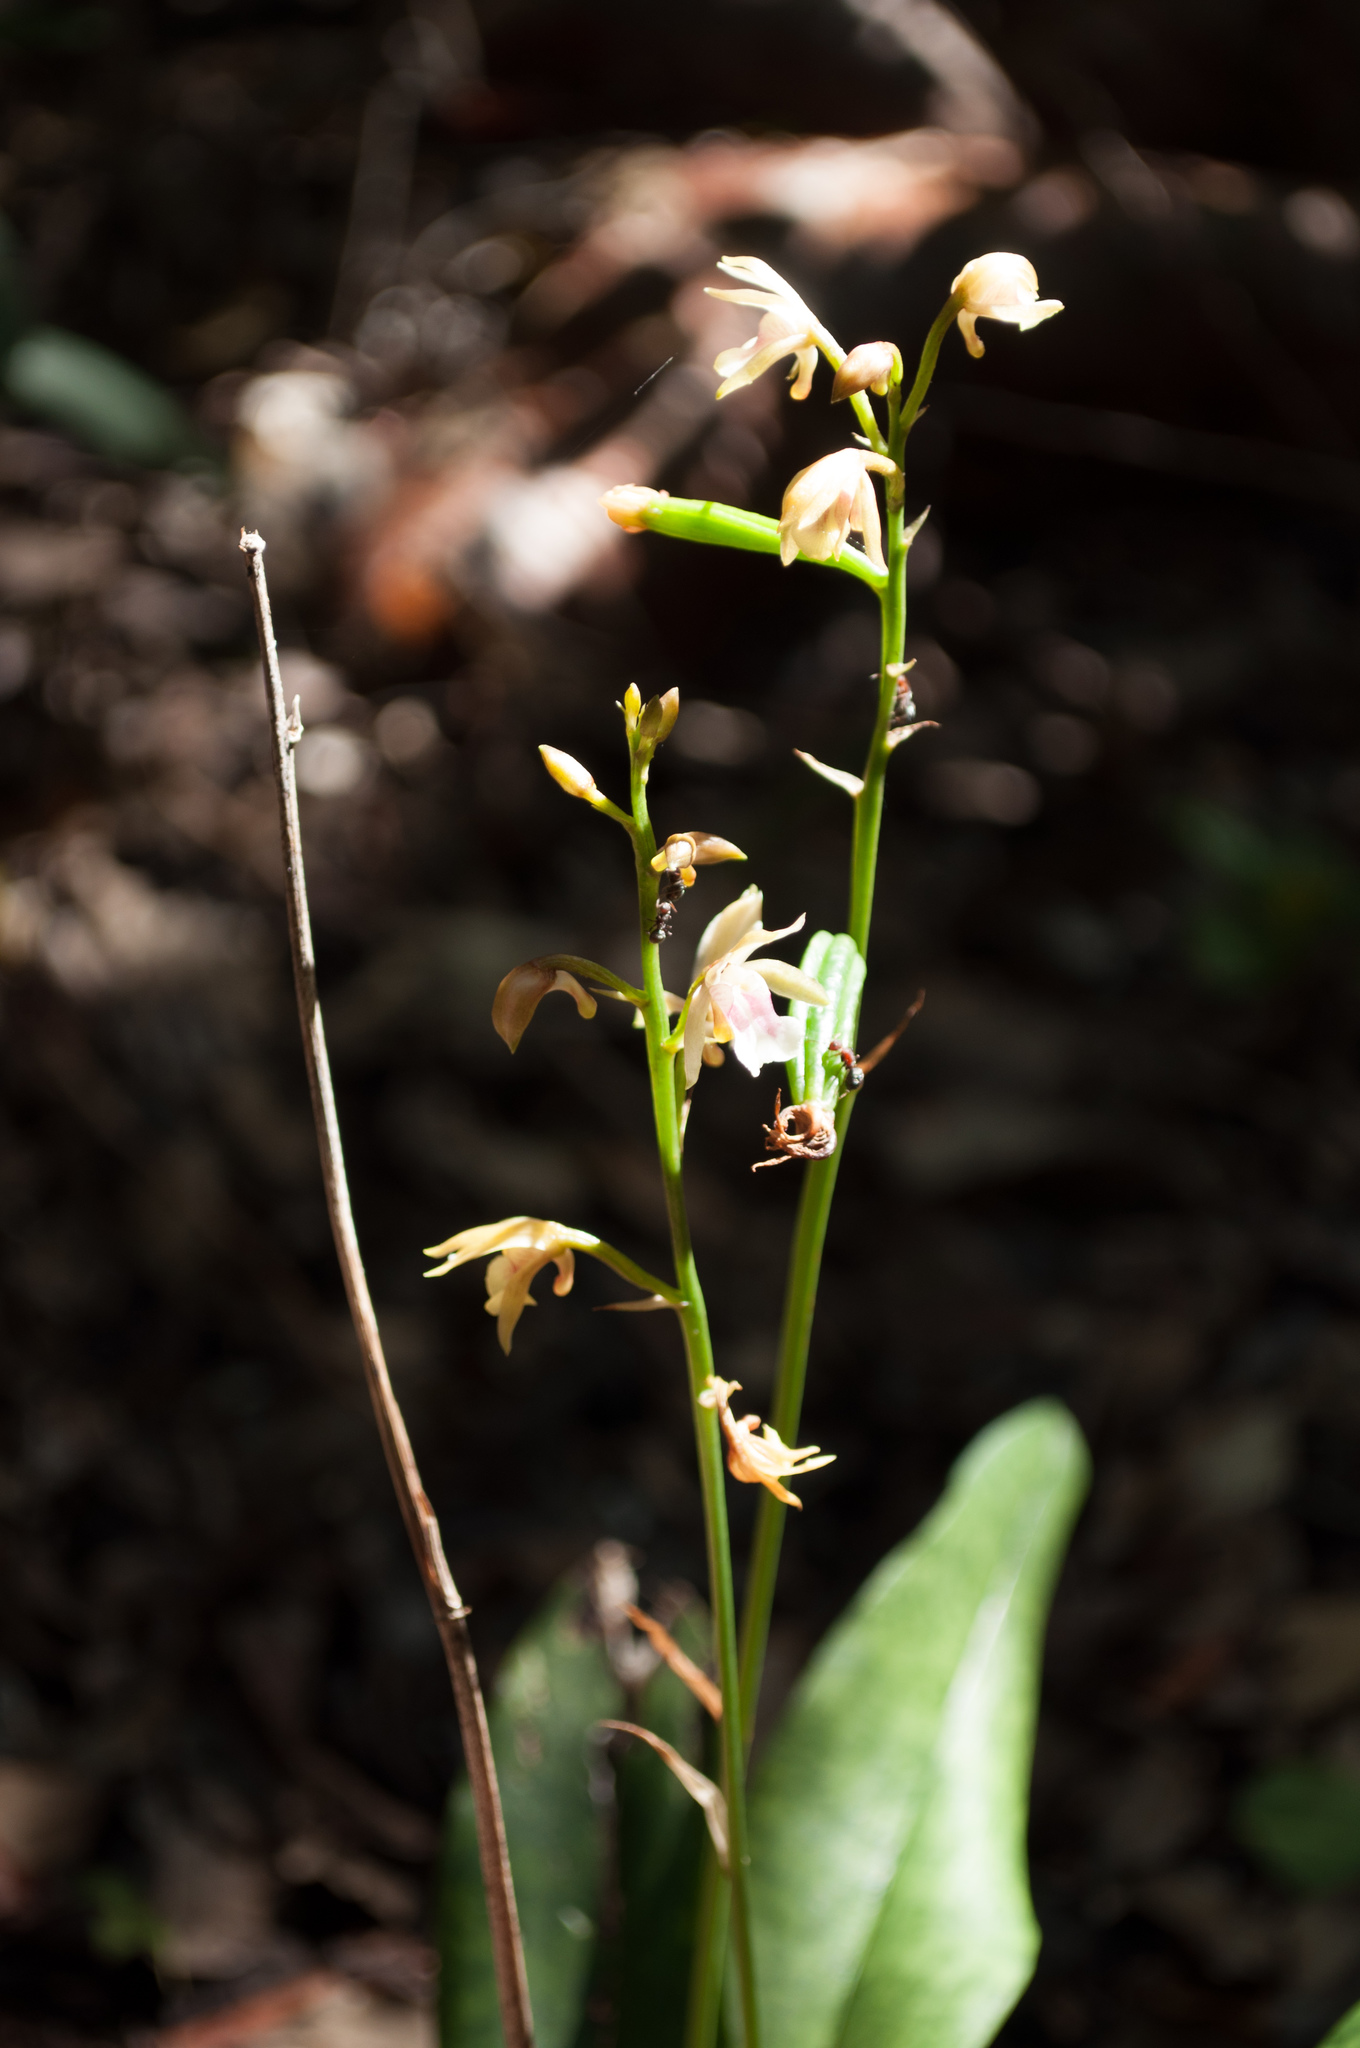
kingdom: Plantae
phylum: Tracheophyta
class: Liliopsida
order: Asparagales
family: Orchidaceae
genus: Eulophia
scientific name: Eulophia maculata
